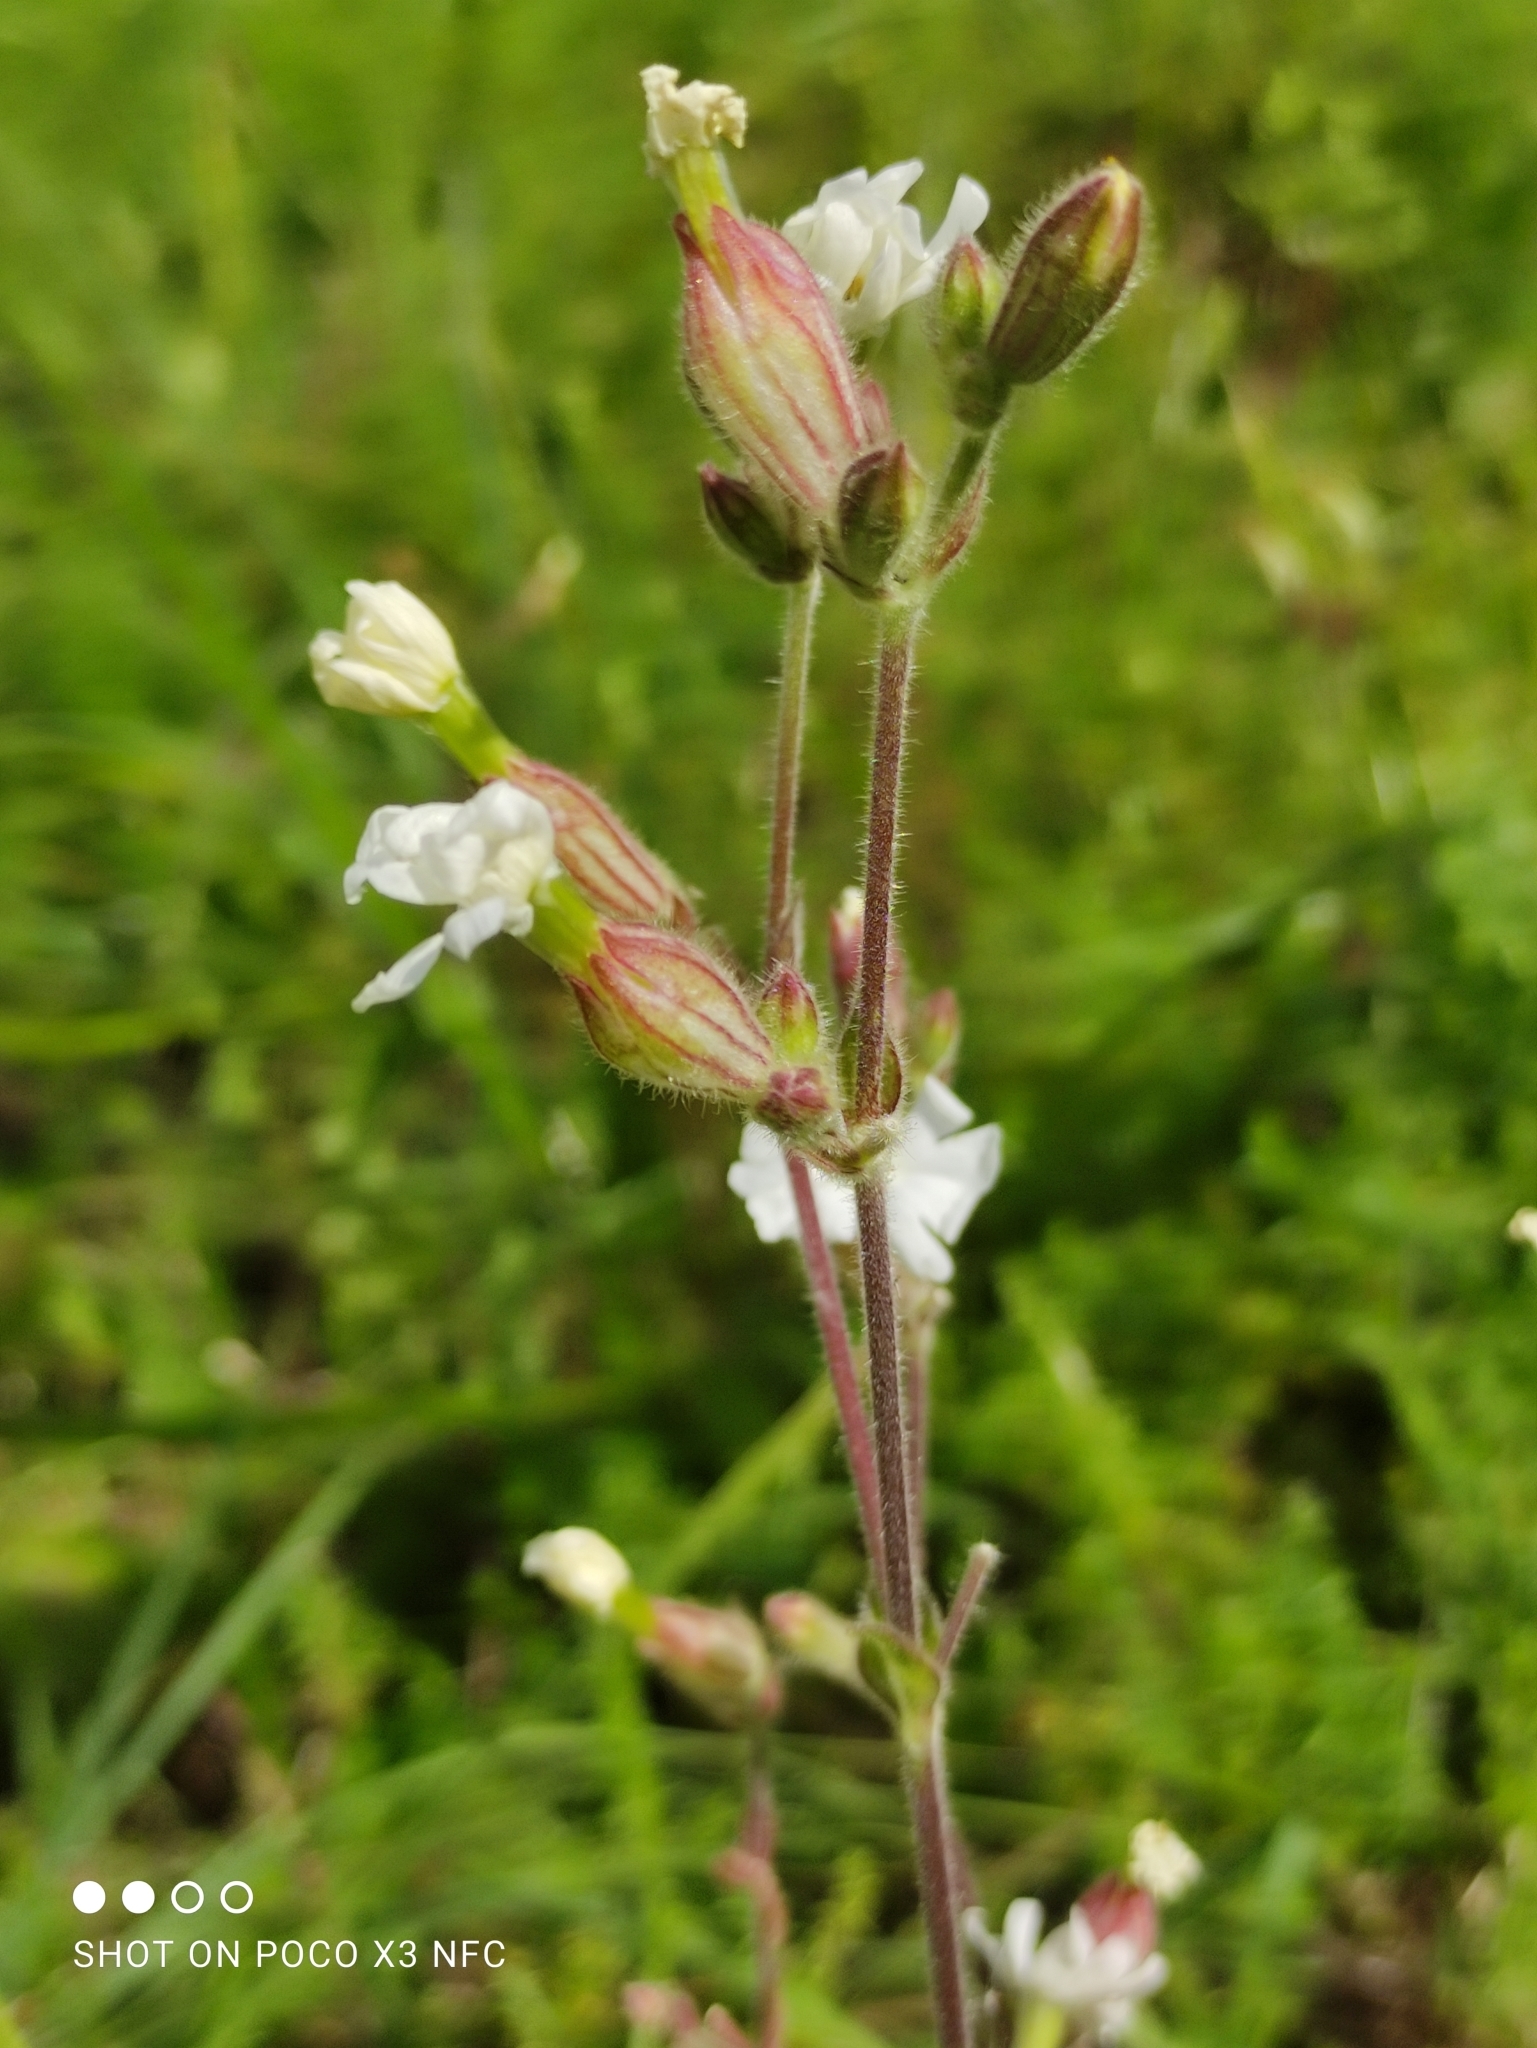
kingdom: Plantae
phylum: Tracheophyta
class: Magnoliopsida
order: Caryophyllales
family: Caryophyllaceae
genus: Silene
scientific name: Silene latifolia
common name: White campion
